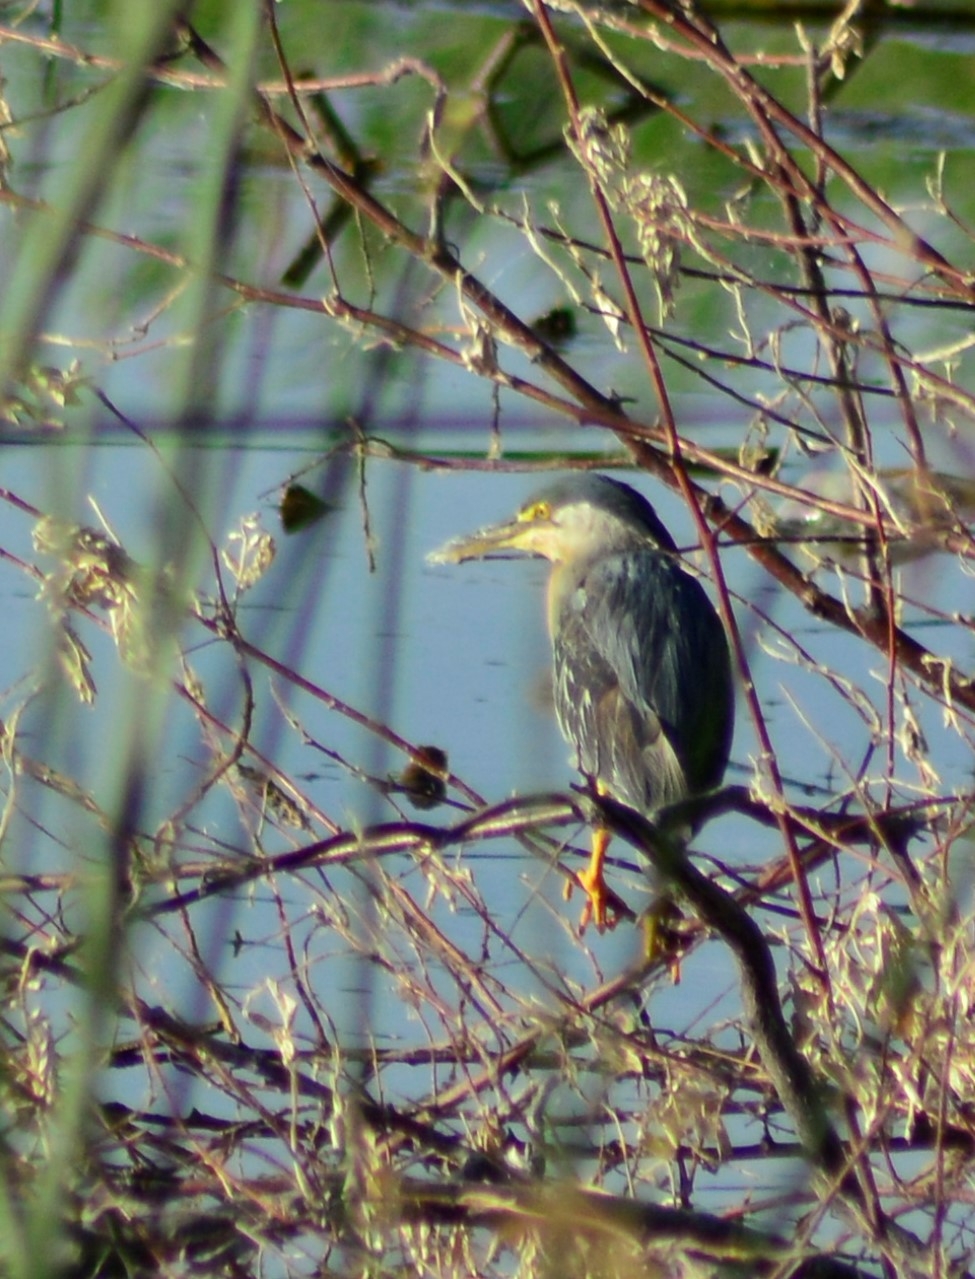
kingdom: Animalia
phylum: Chordata
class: Aves
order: Pelecaniformes
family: Ardeidae
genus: Butorides
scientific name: Butorides striata
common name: Striated heron
